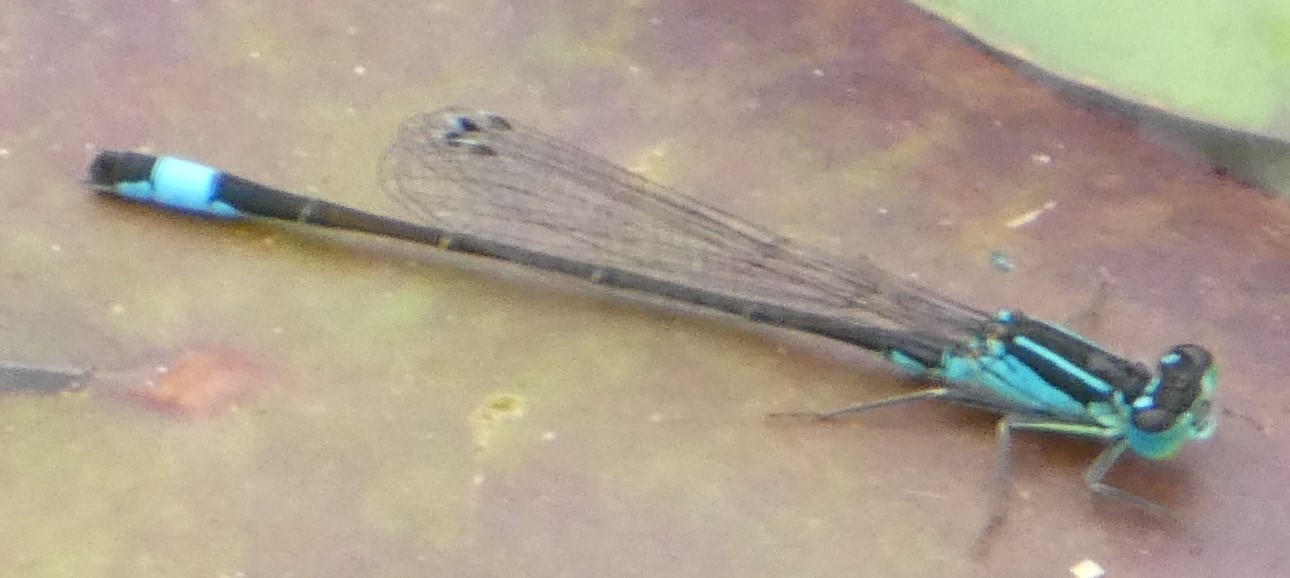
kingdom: Animalia
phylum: Arthropoda
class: Insecta
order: Odonata
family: Coenagrionidae
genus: Ischnura
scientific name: Ischnura elegans
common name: Blue-tailed damselfly
